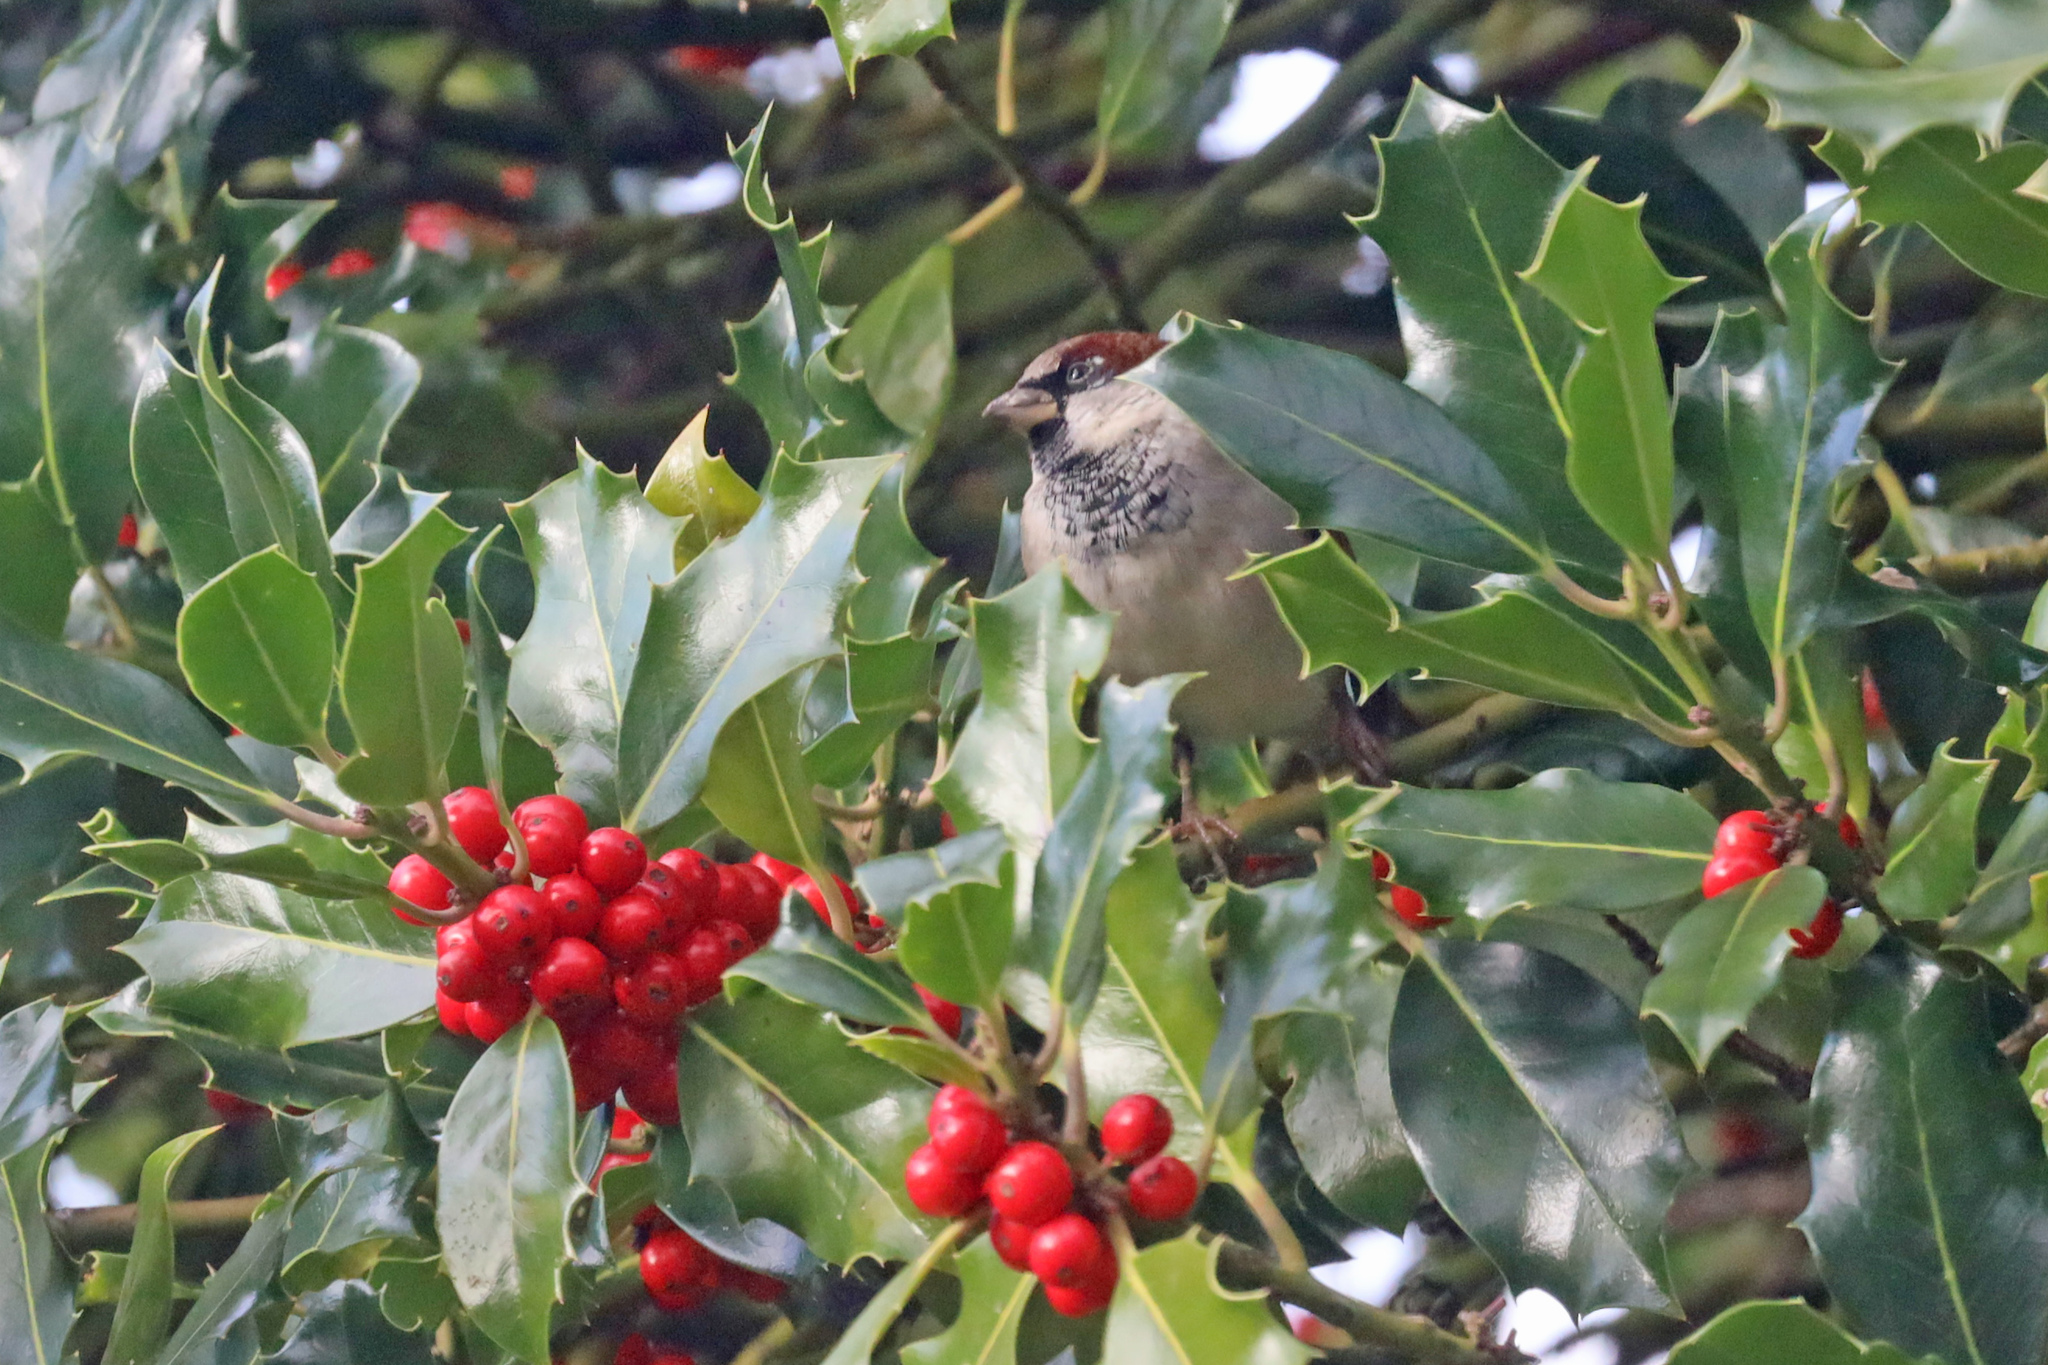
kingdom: Animalia
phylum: Chordata
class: Aves
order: Passeriformes
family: Passeridae
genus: Passer
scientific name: Passer domesticus
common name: House sparrow
